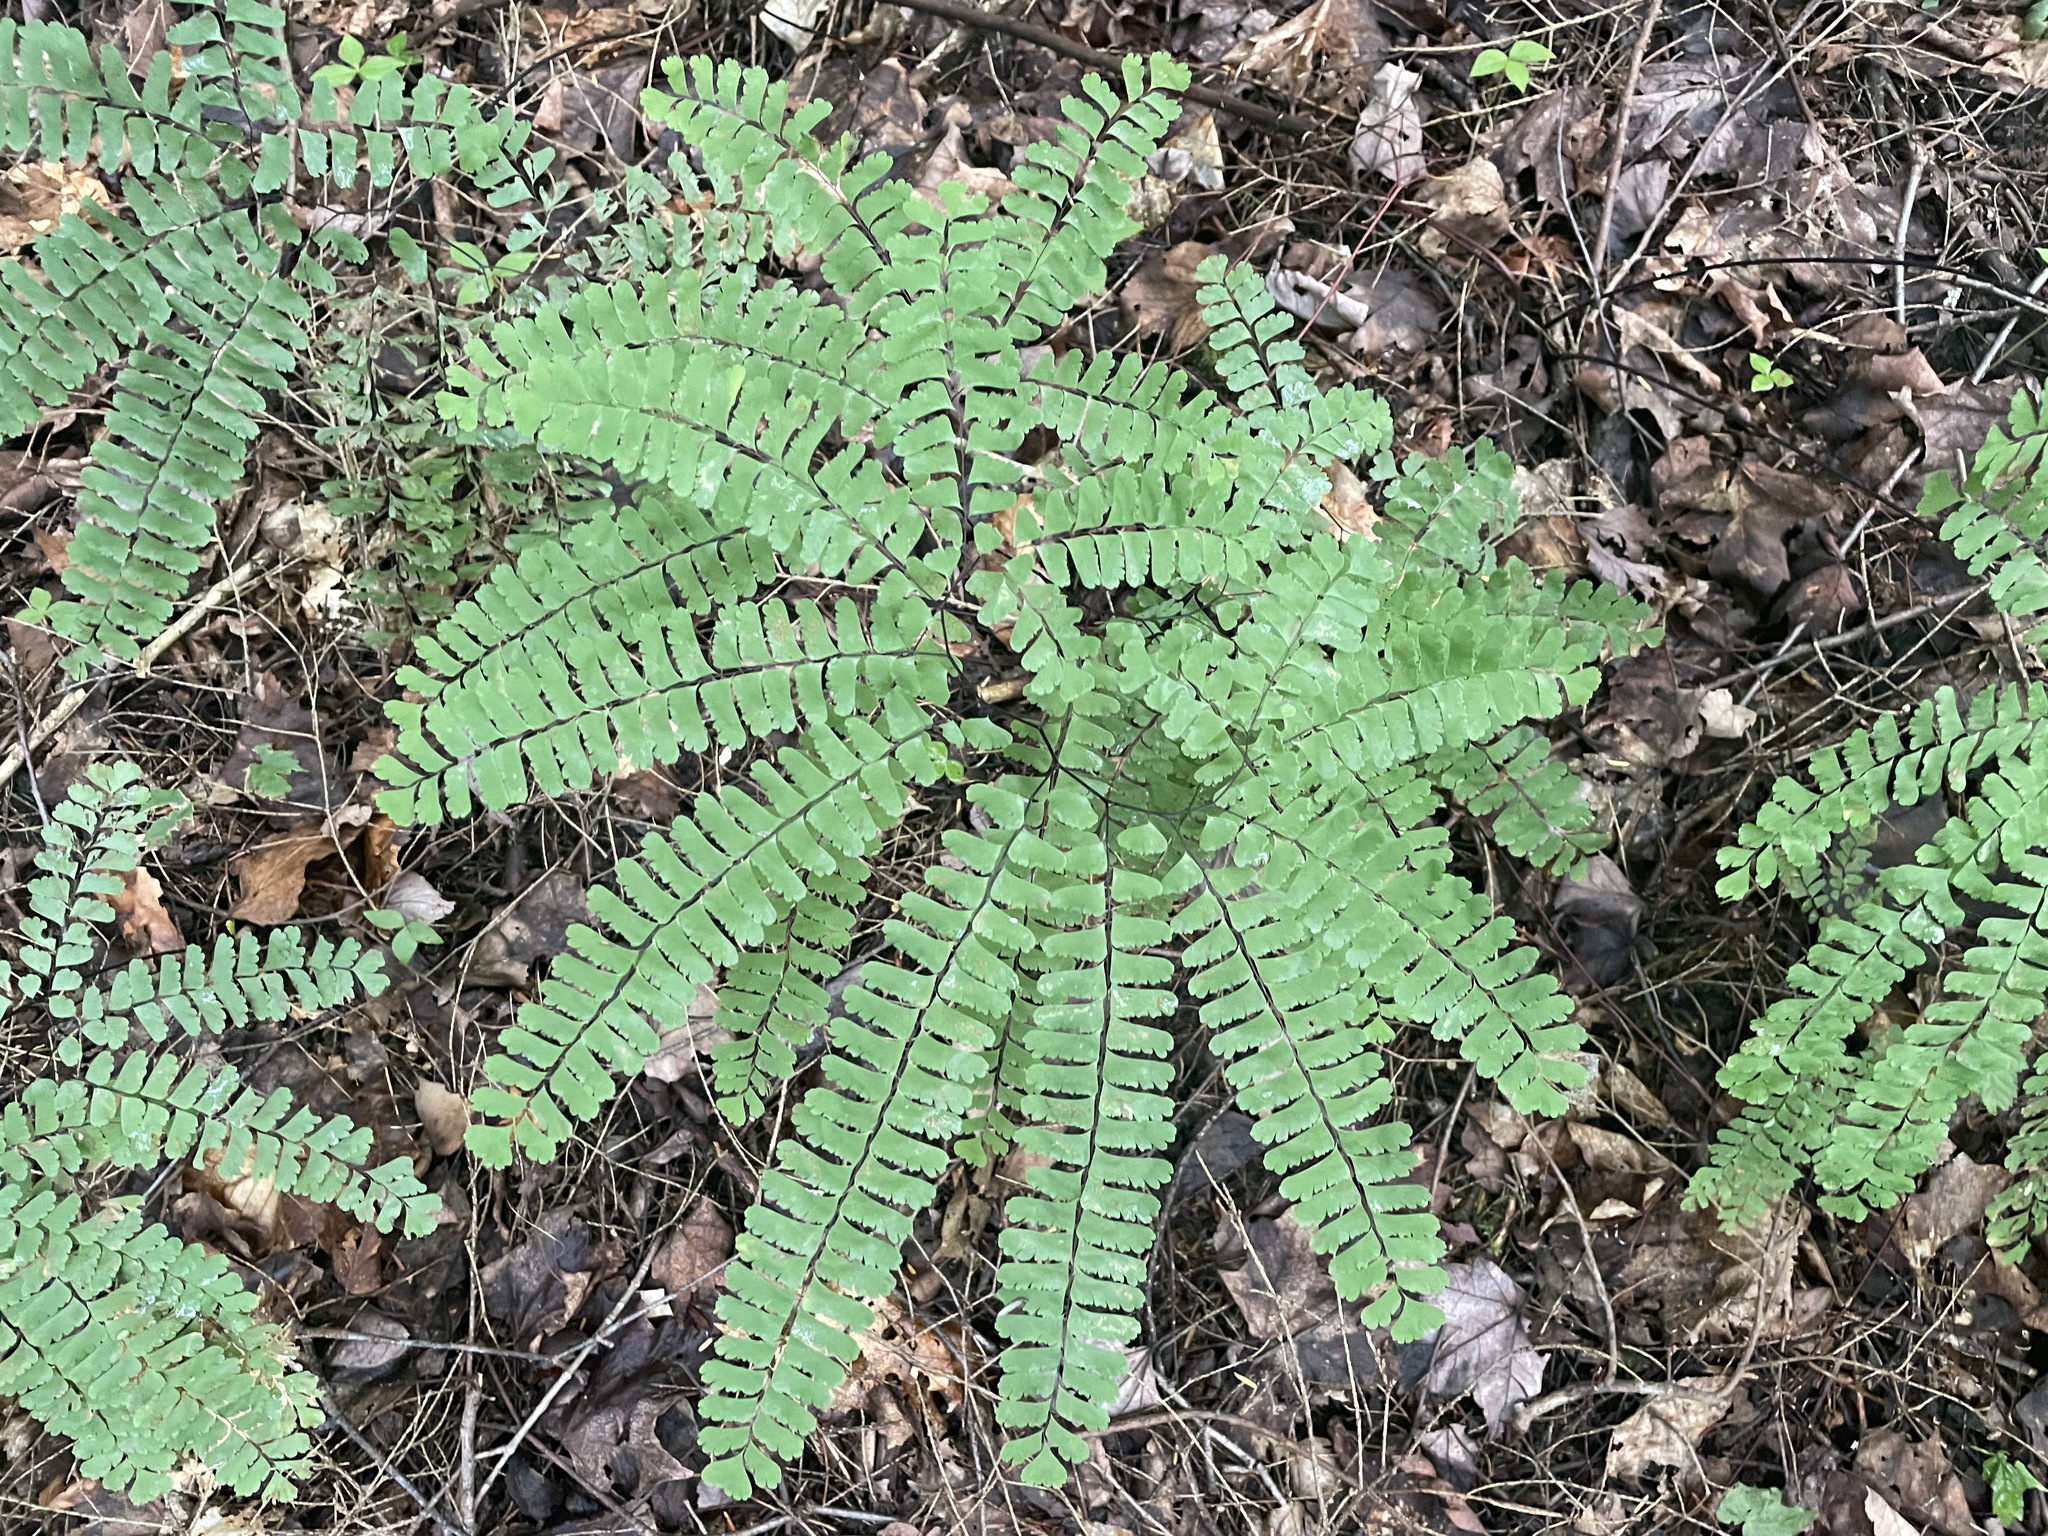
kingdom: Plantae
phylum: Tracheophyta
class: Polypodiopsida
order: Polypodiales
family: Pteridaceae
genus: Adiantum
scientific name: Adiantum pedatum
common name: Five-finger fern
